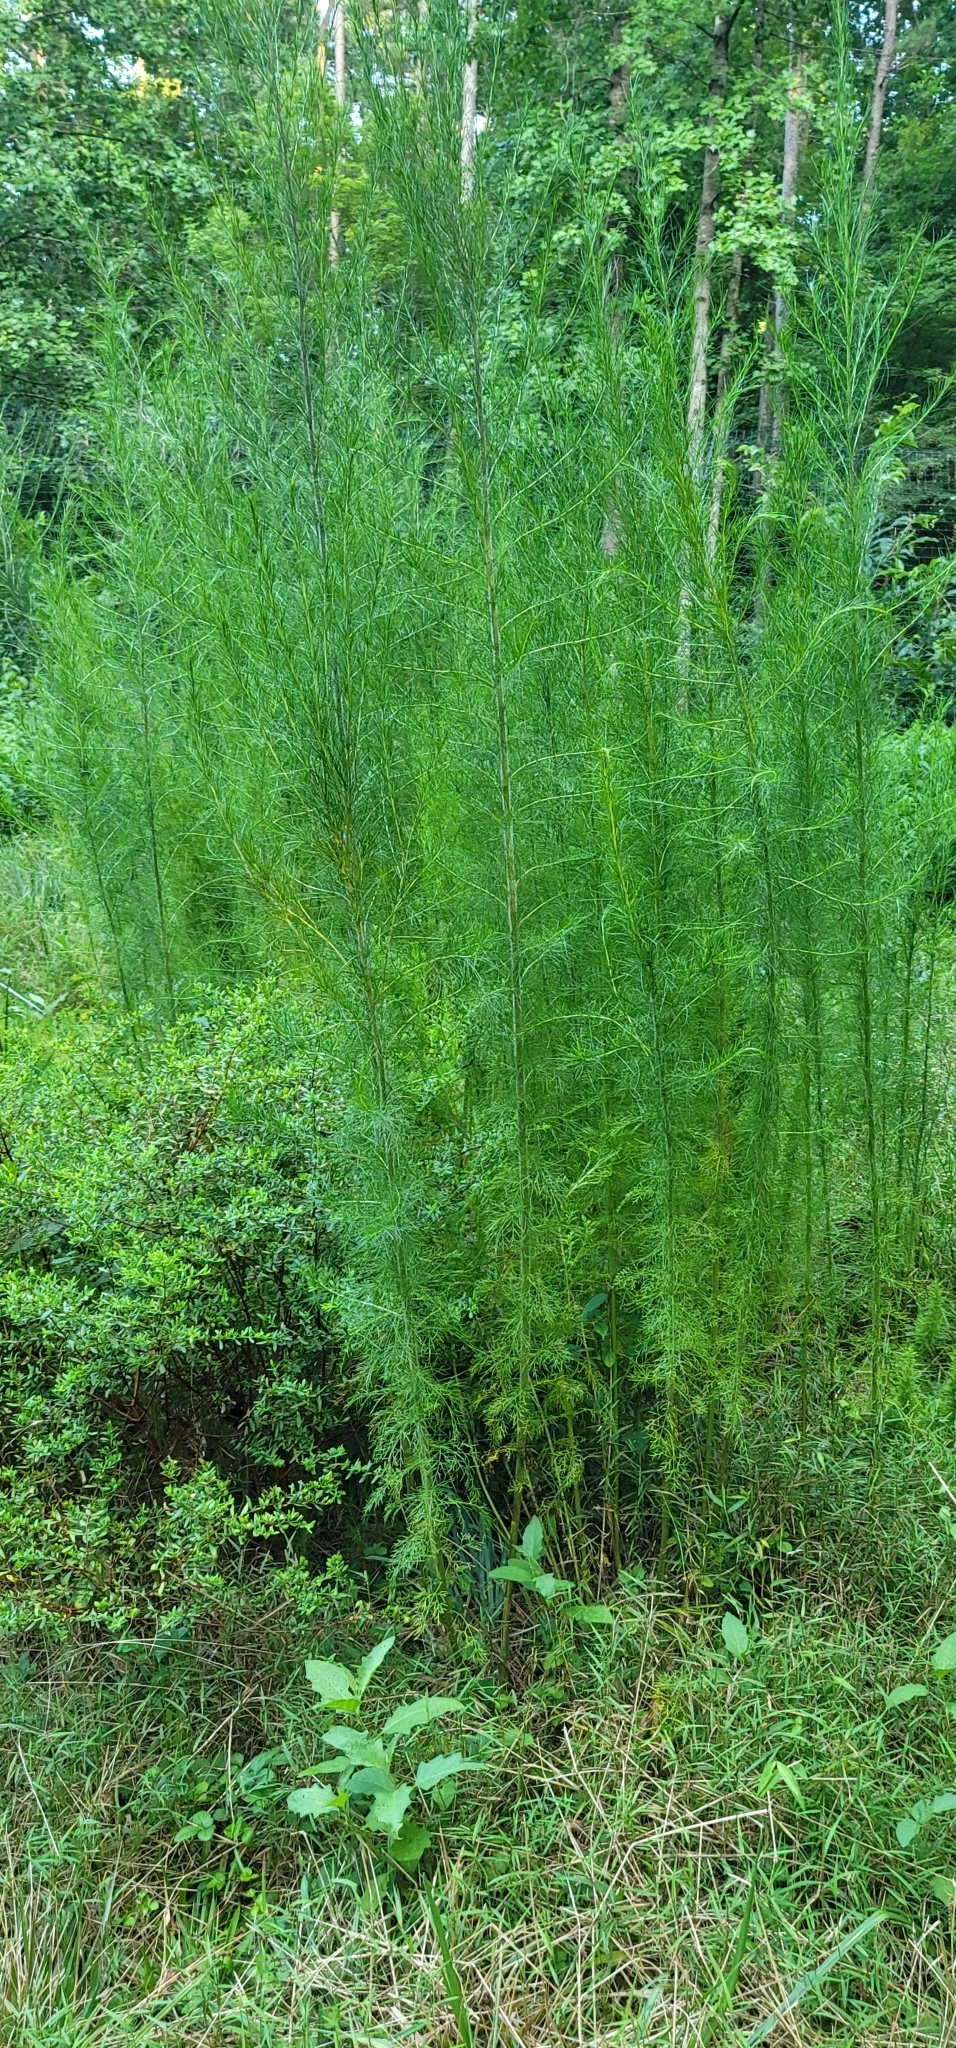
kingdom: Plantae
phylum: Tracheophyta
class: Magnoliopsida
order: Asterales
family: Asteraceae
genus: Eupatorium
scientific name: Eupatorium capillifolium
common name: Dog-fennel
